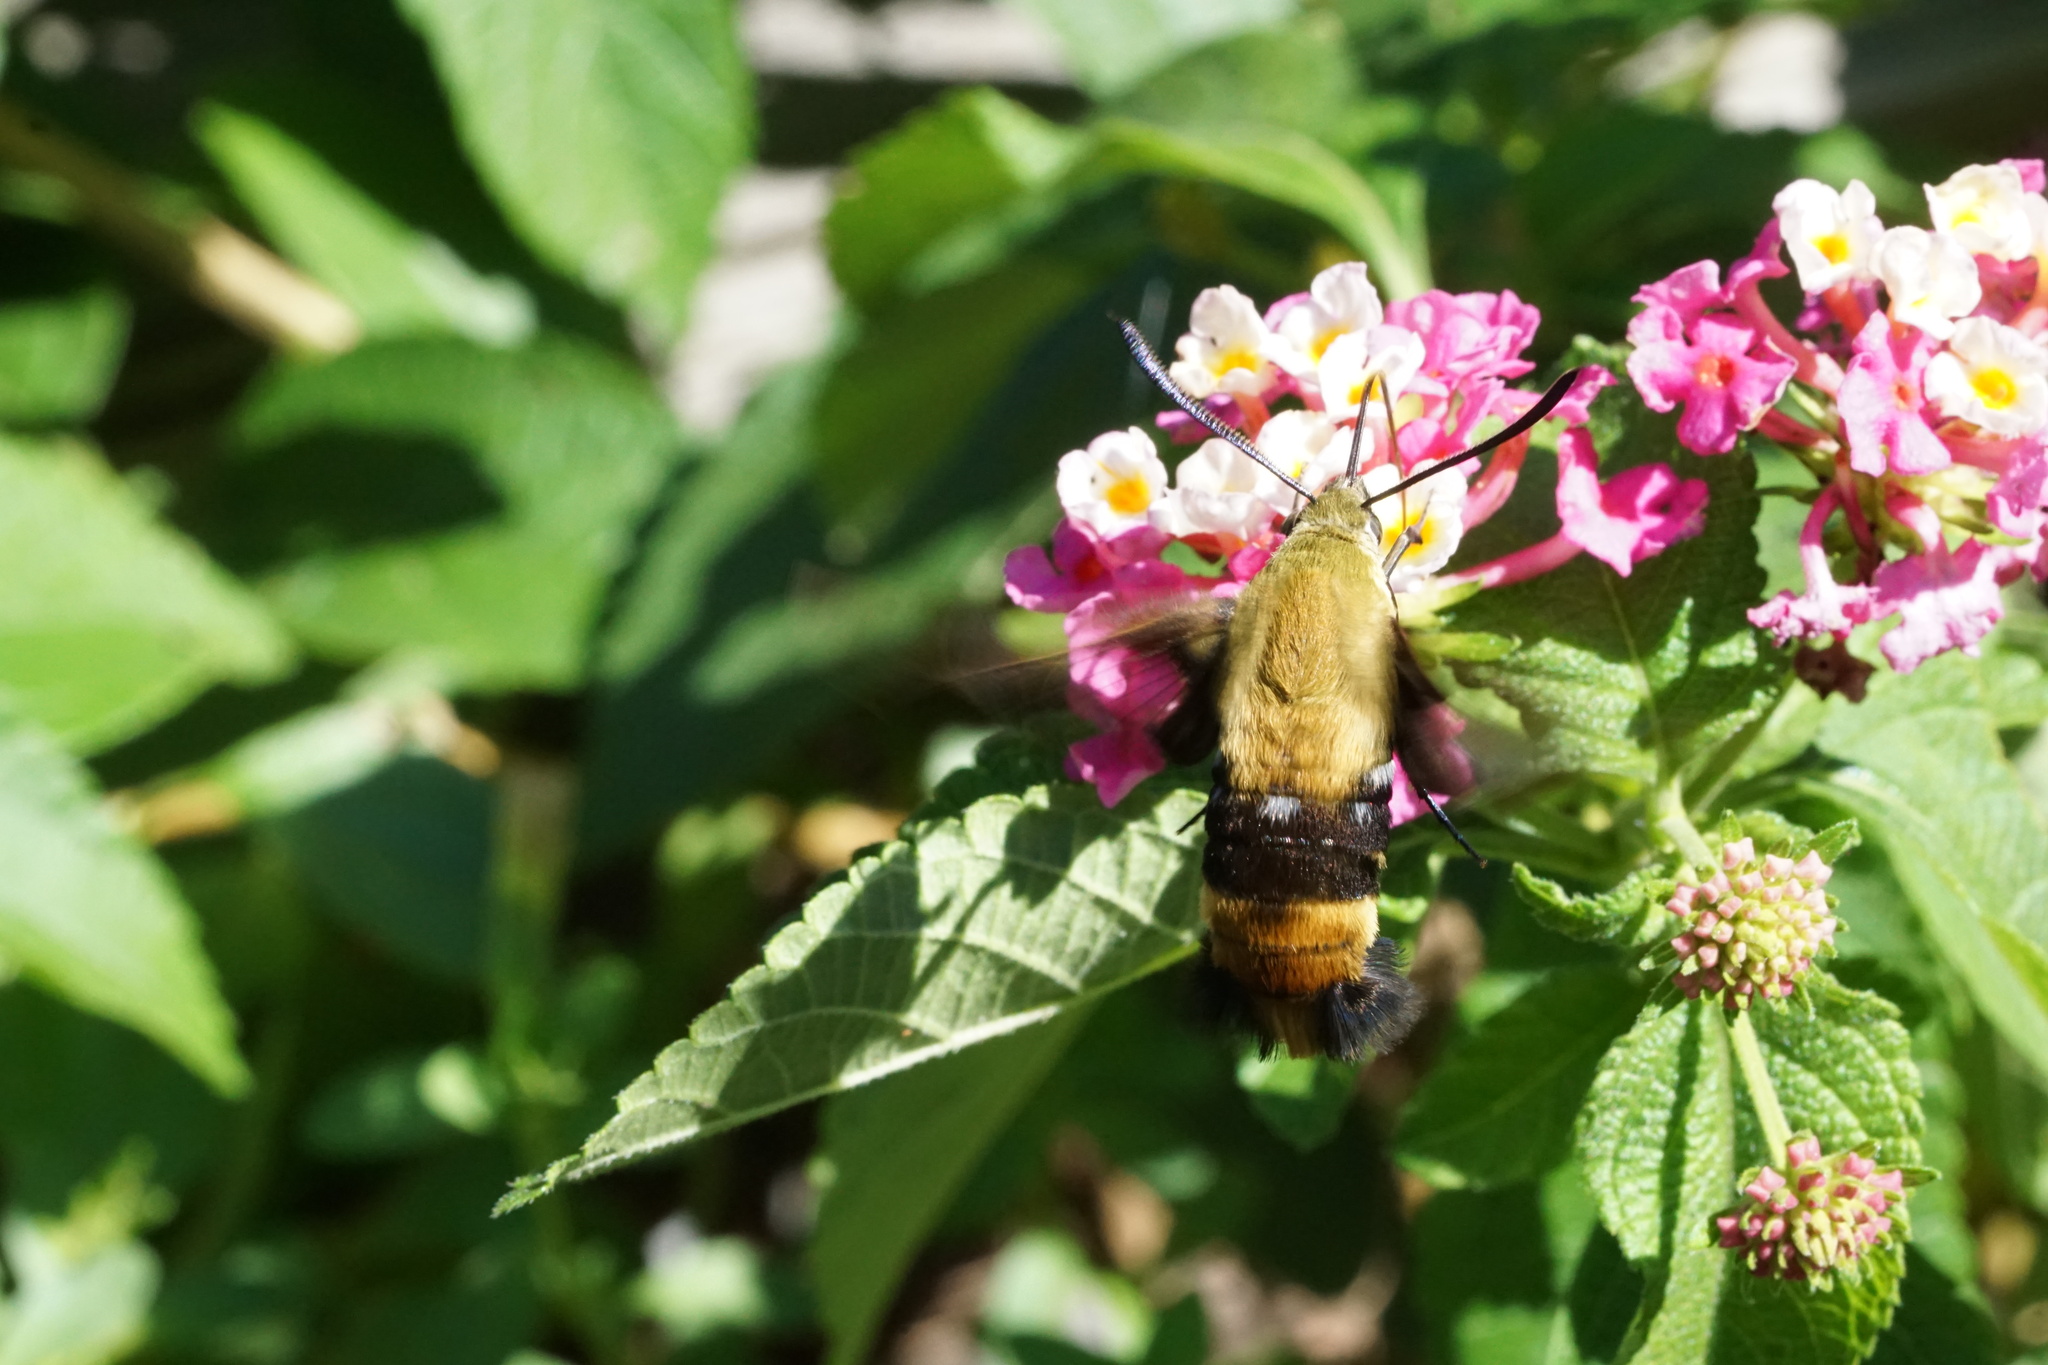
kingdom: Animalia
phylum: Arthropoda
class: Insecta
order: Lepidoptera
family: Sphingidae
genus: Hemaris
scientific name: Hemaris diffinis
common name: Bumblebee moth
